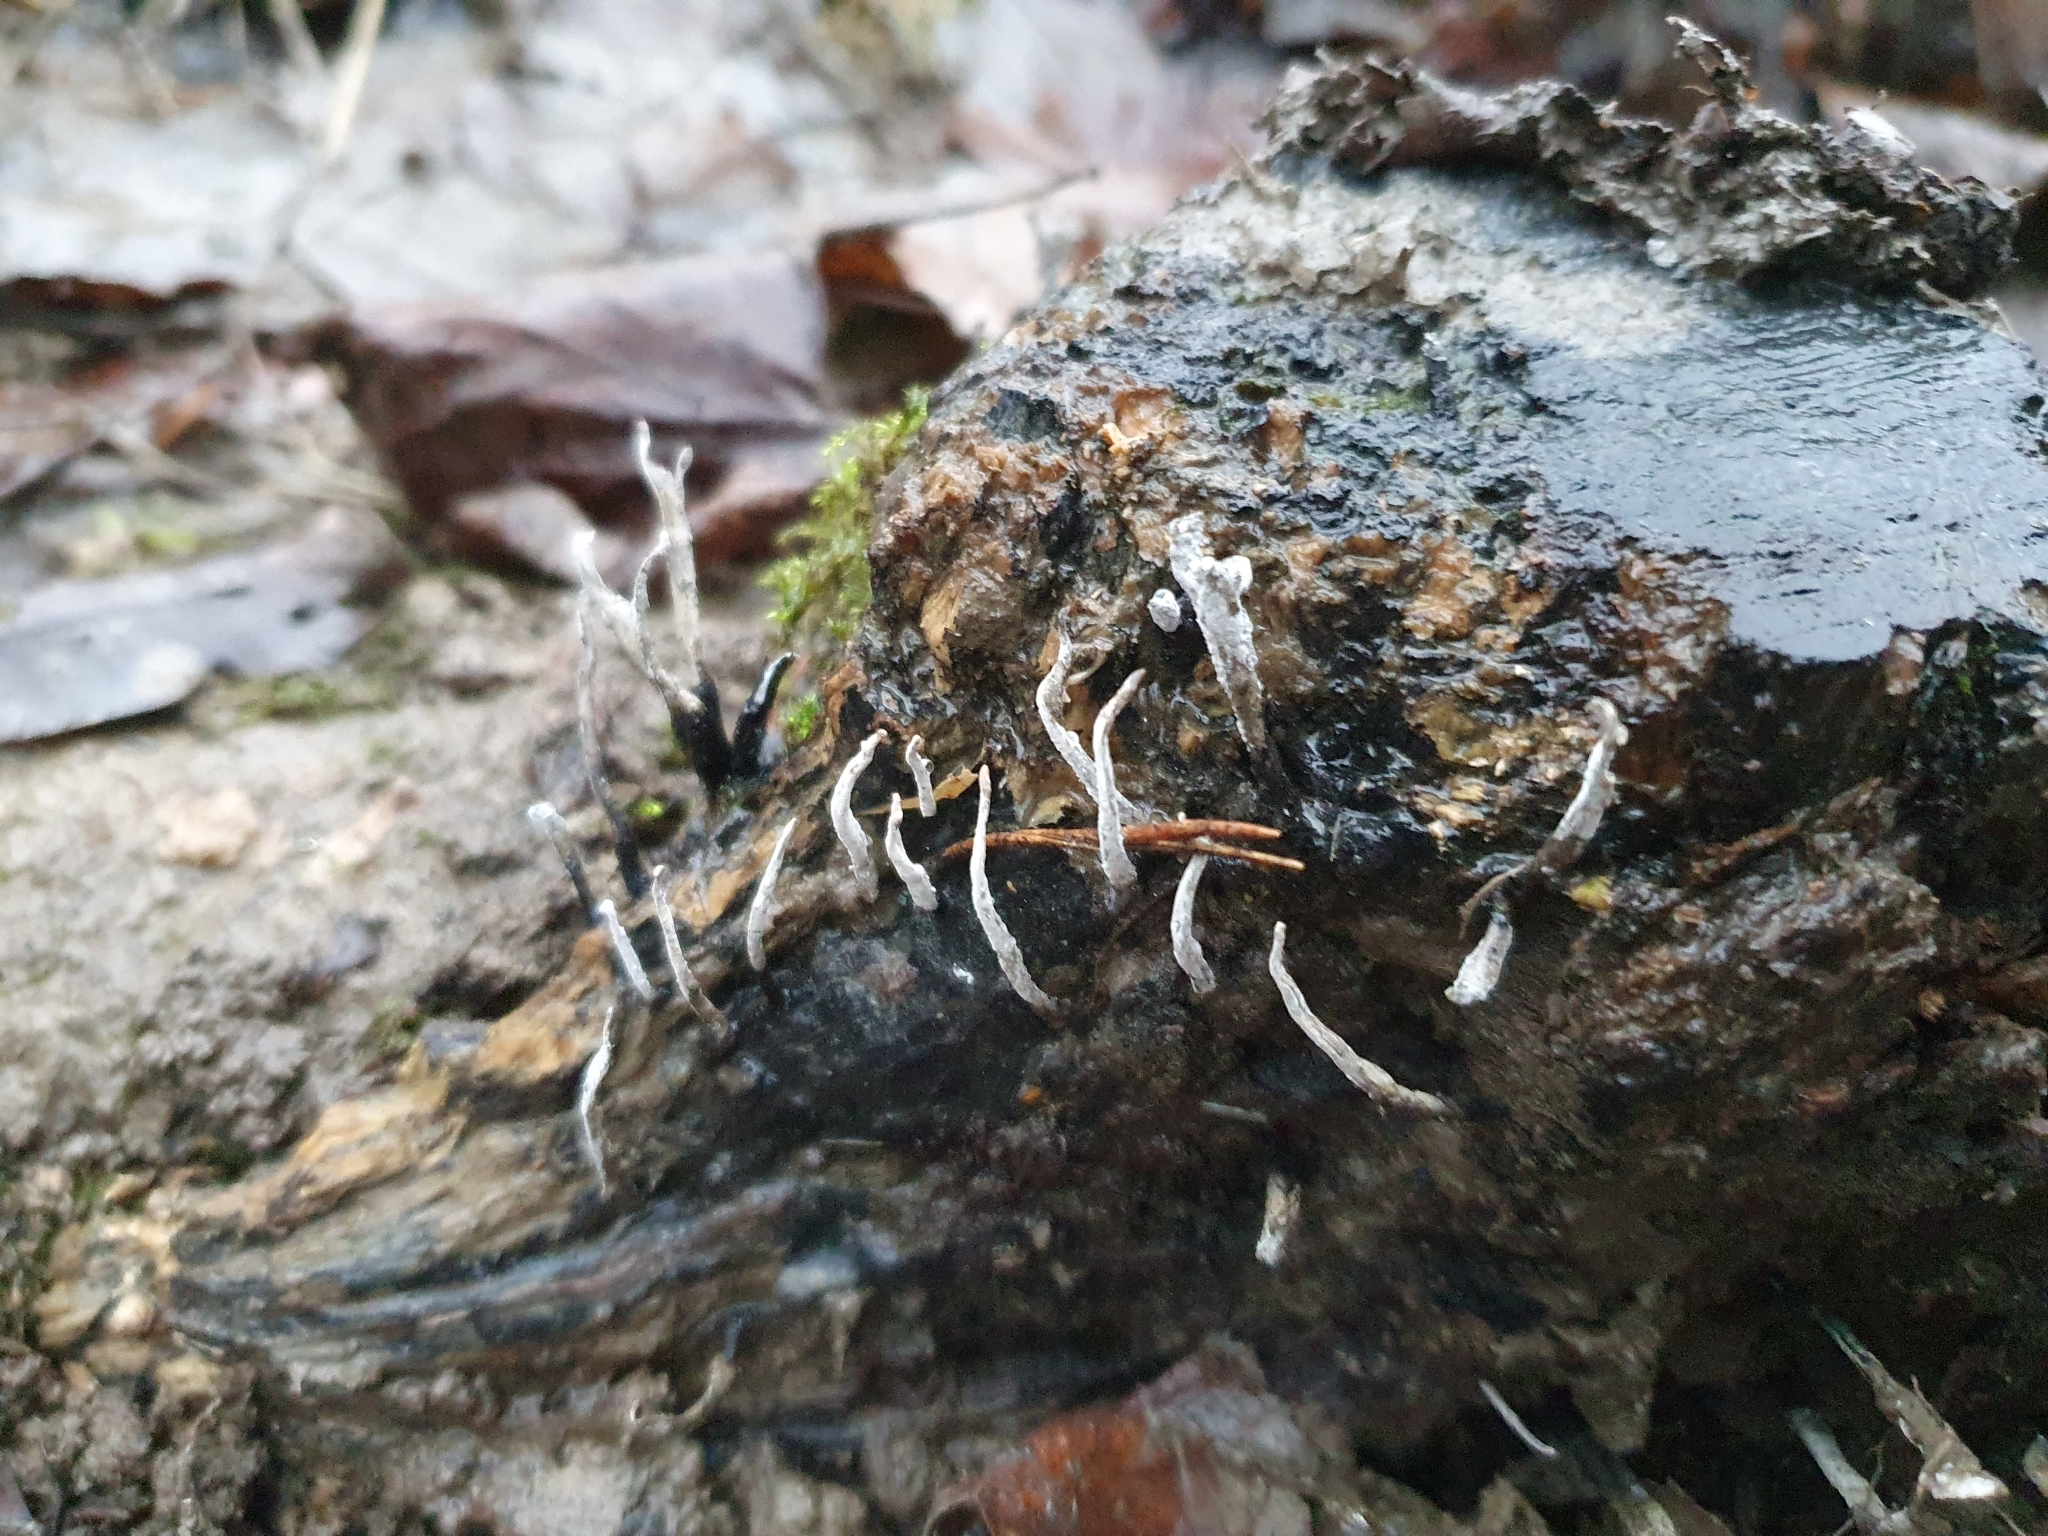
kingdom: Fungi
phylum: Ascomycota
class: Sordariomycetes
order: Xylariales
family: Xylariaceae
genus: Xylaria
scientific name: Xylaria hypoxylon
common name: Candle-snuff fungus
